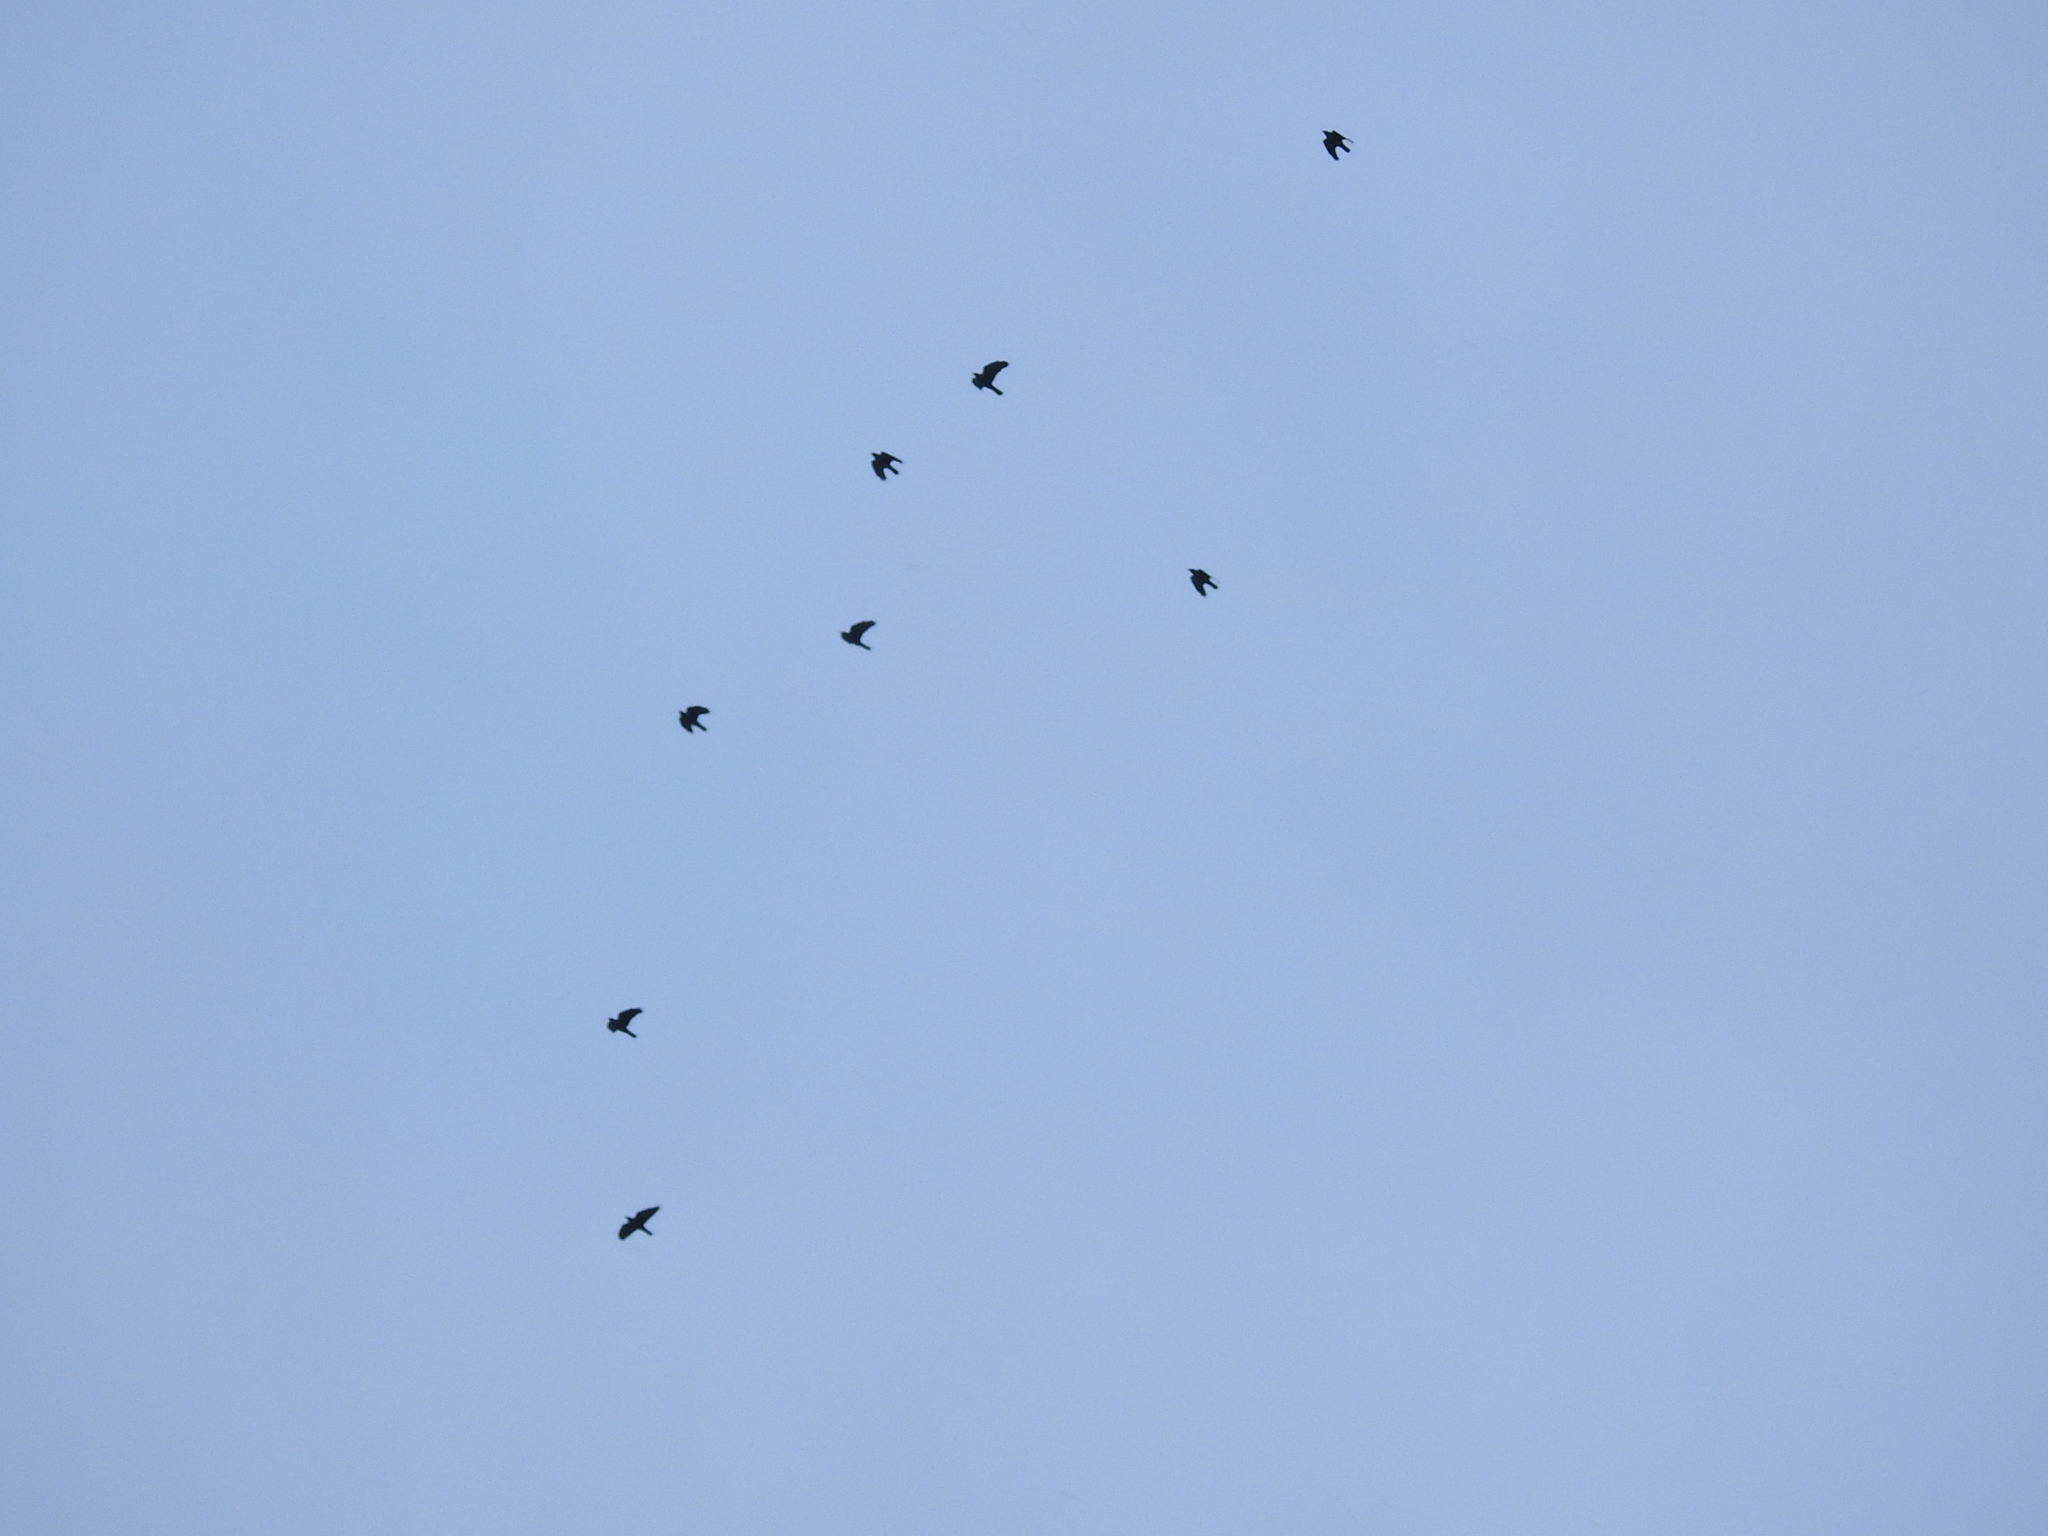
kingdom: Animalia
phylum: Chordata
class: Aves
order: Passeriformes
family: Corvidae
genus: Coloeus
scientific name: Coloeus monedula
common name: Western jackdaw
